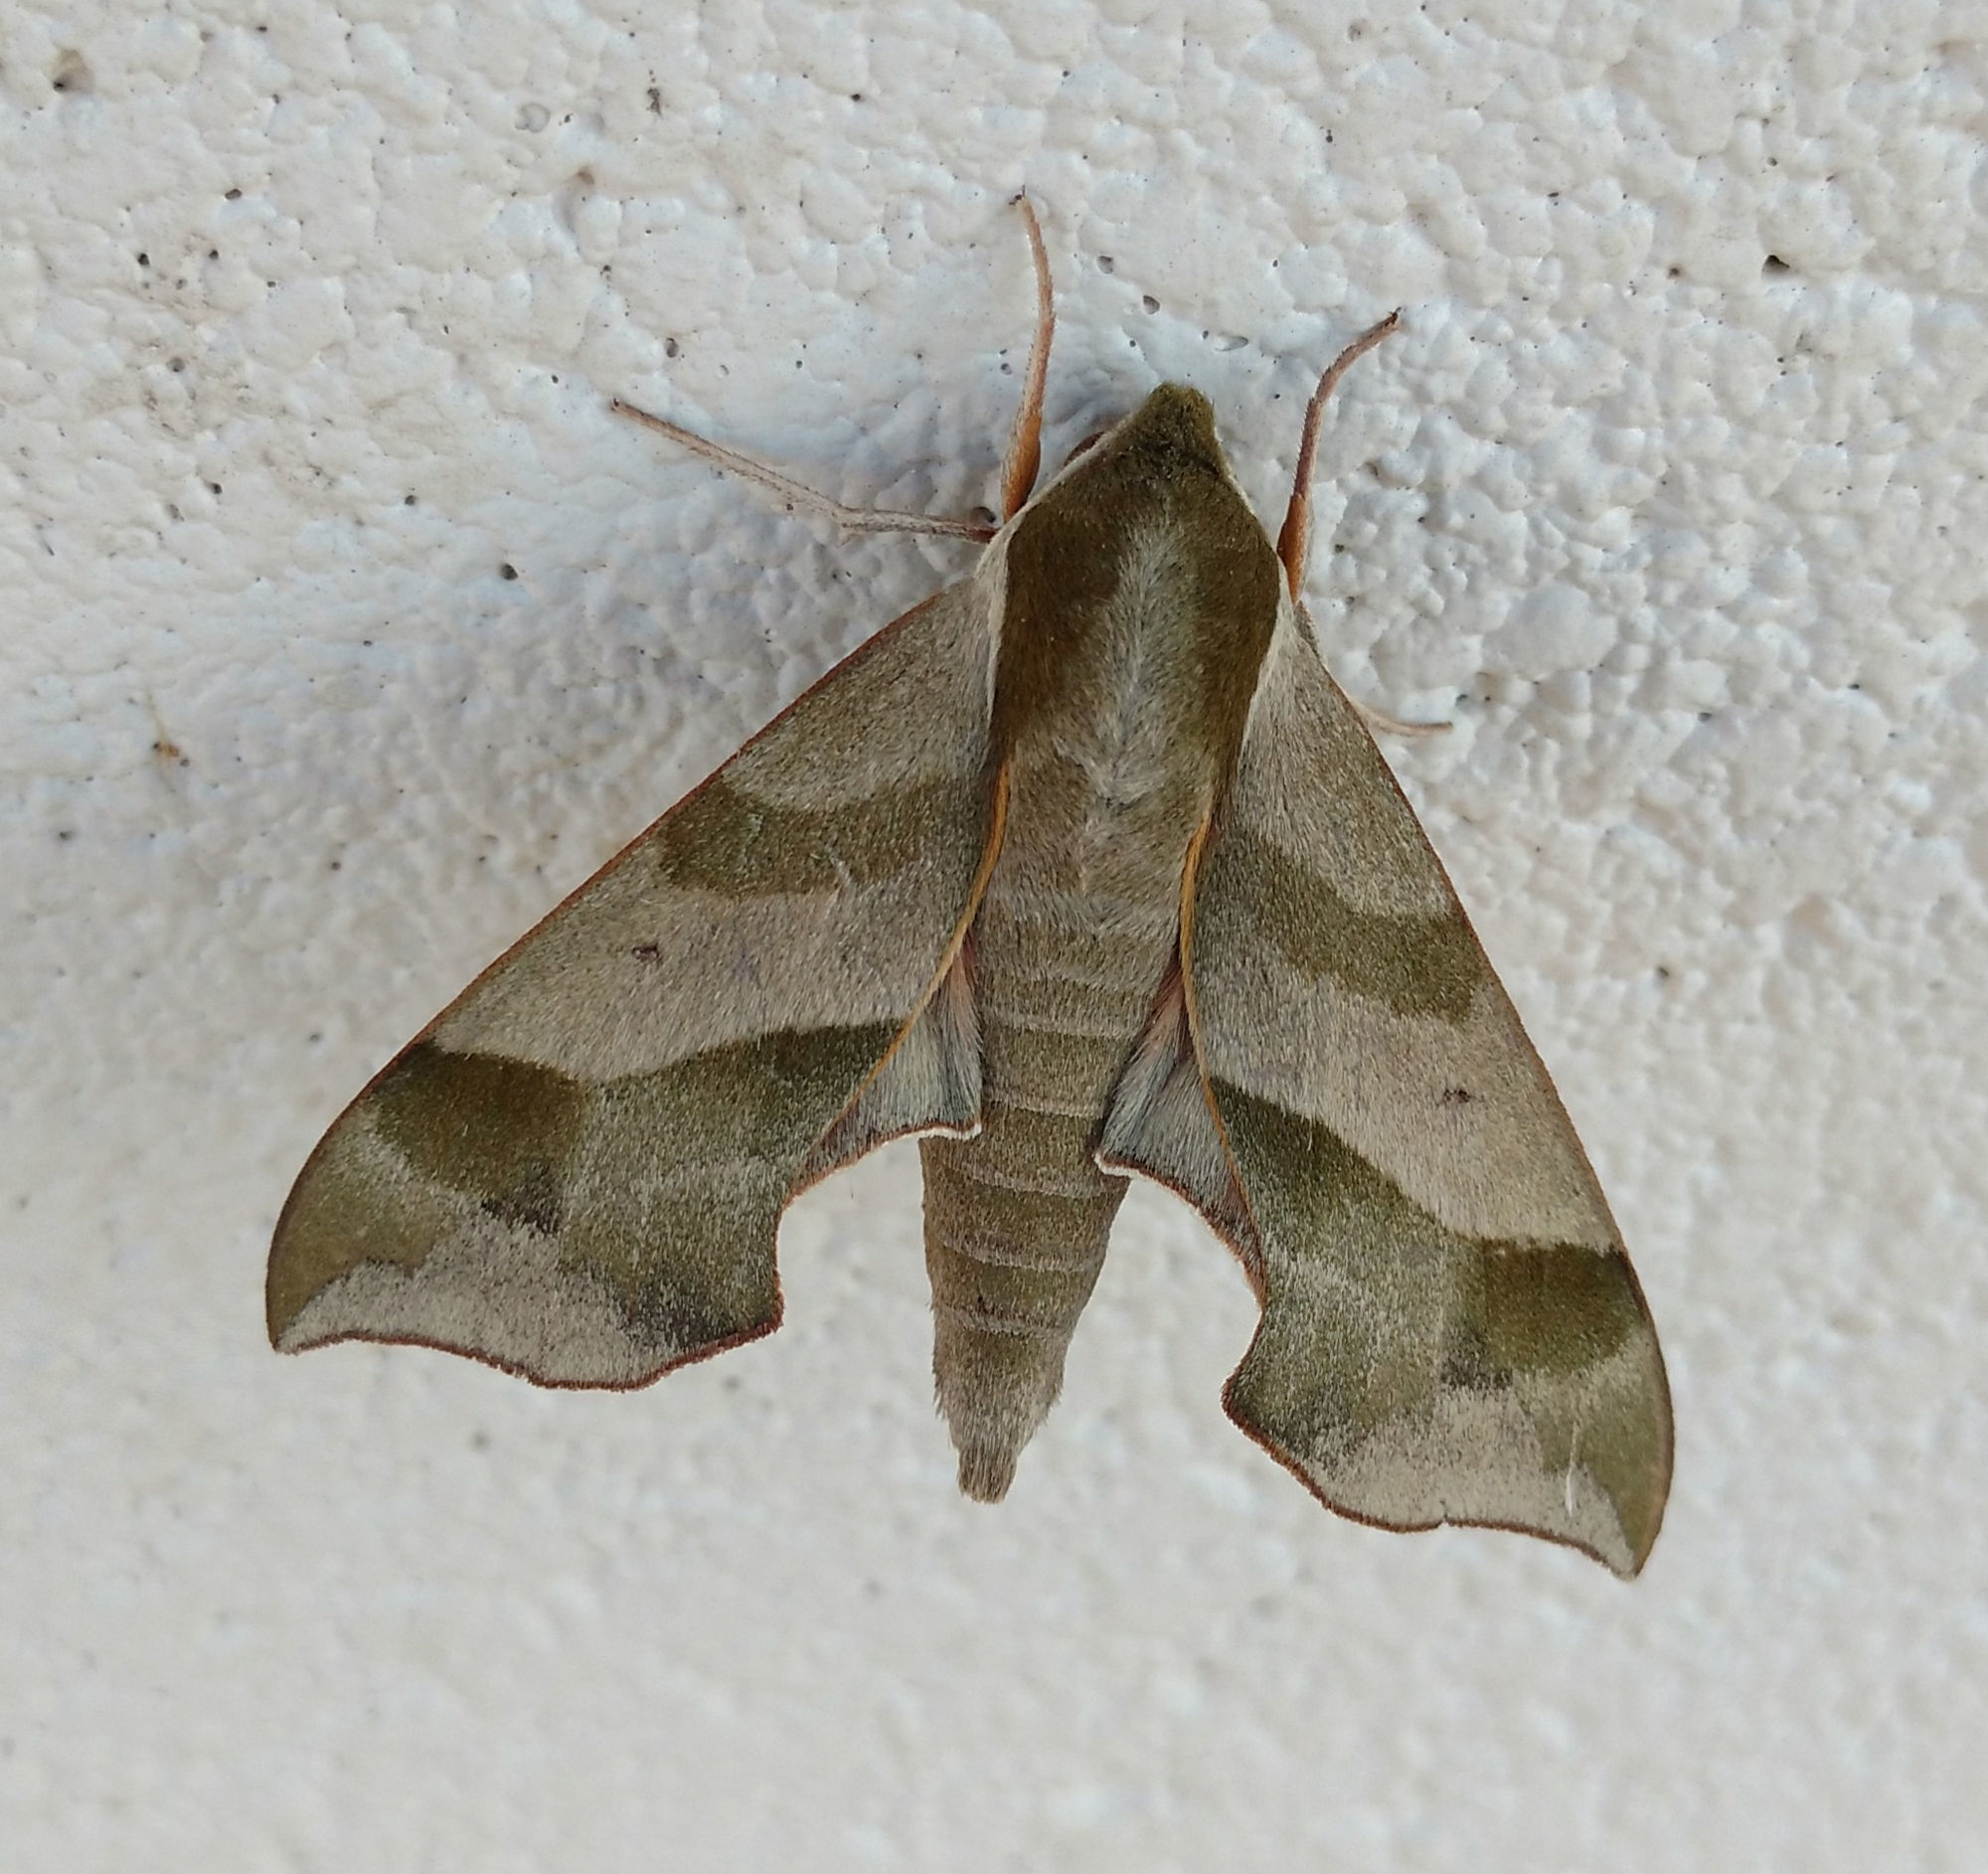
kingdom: Animalia
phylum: Arthropoda
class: Insecta
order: Lepidoptera
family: Sphingidae
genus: Darapsa
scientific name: Darapsa myron
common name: Hog sphinx
